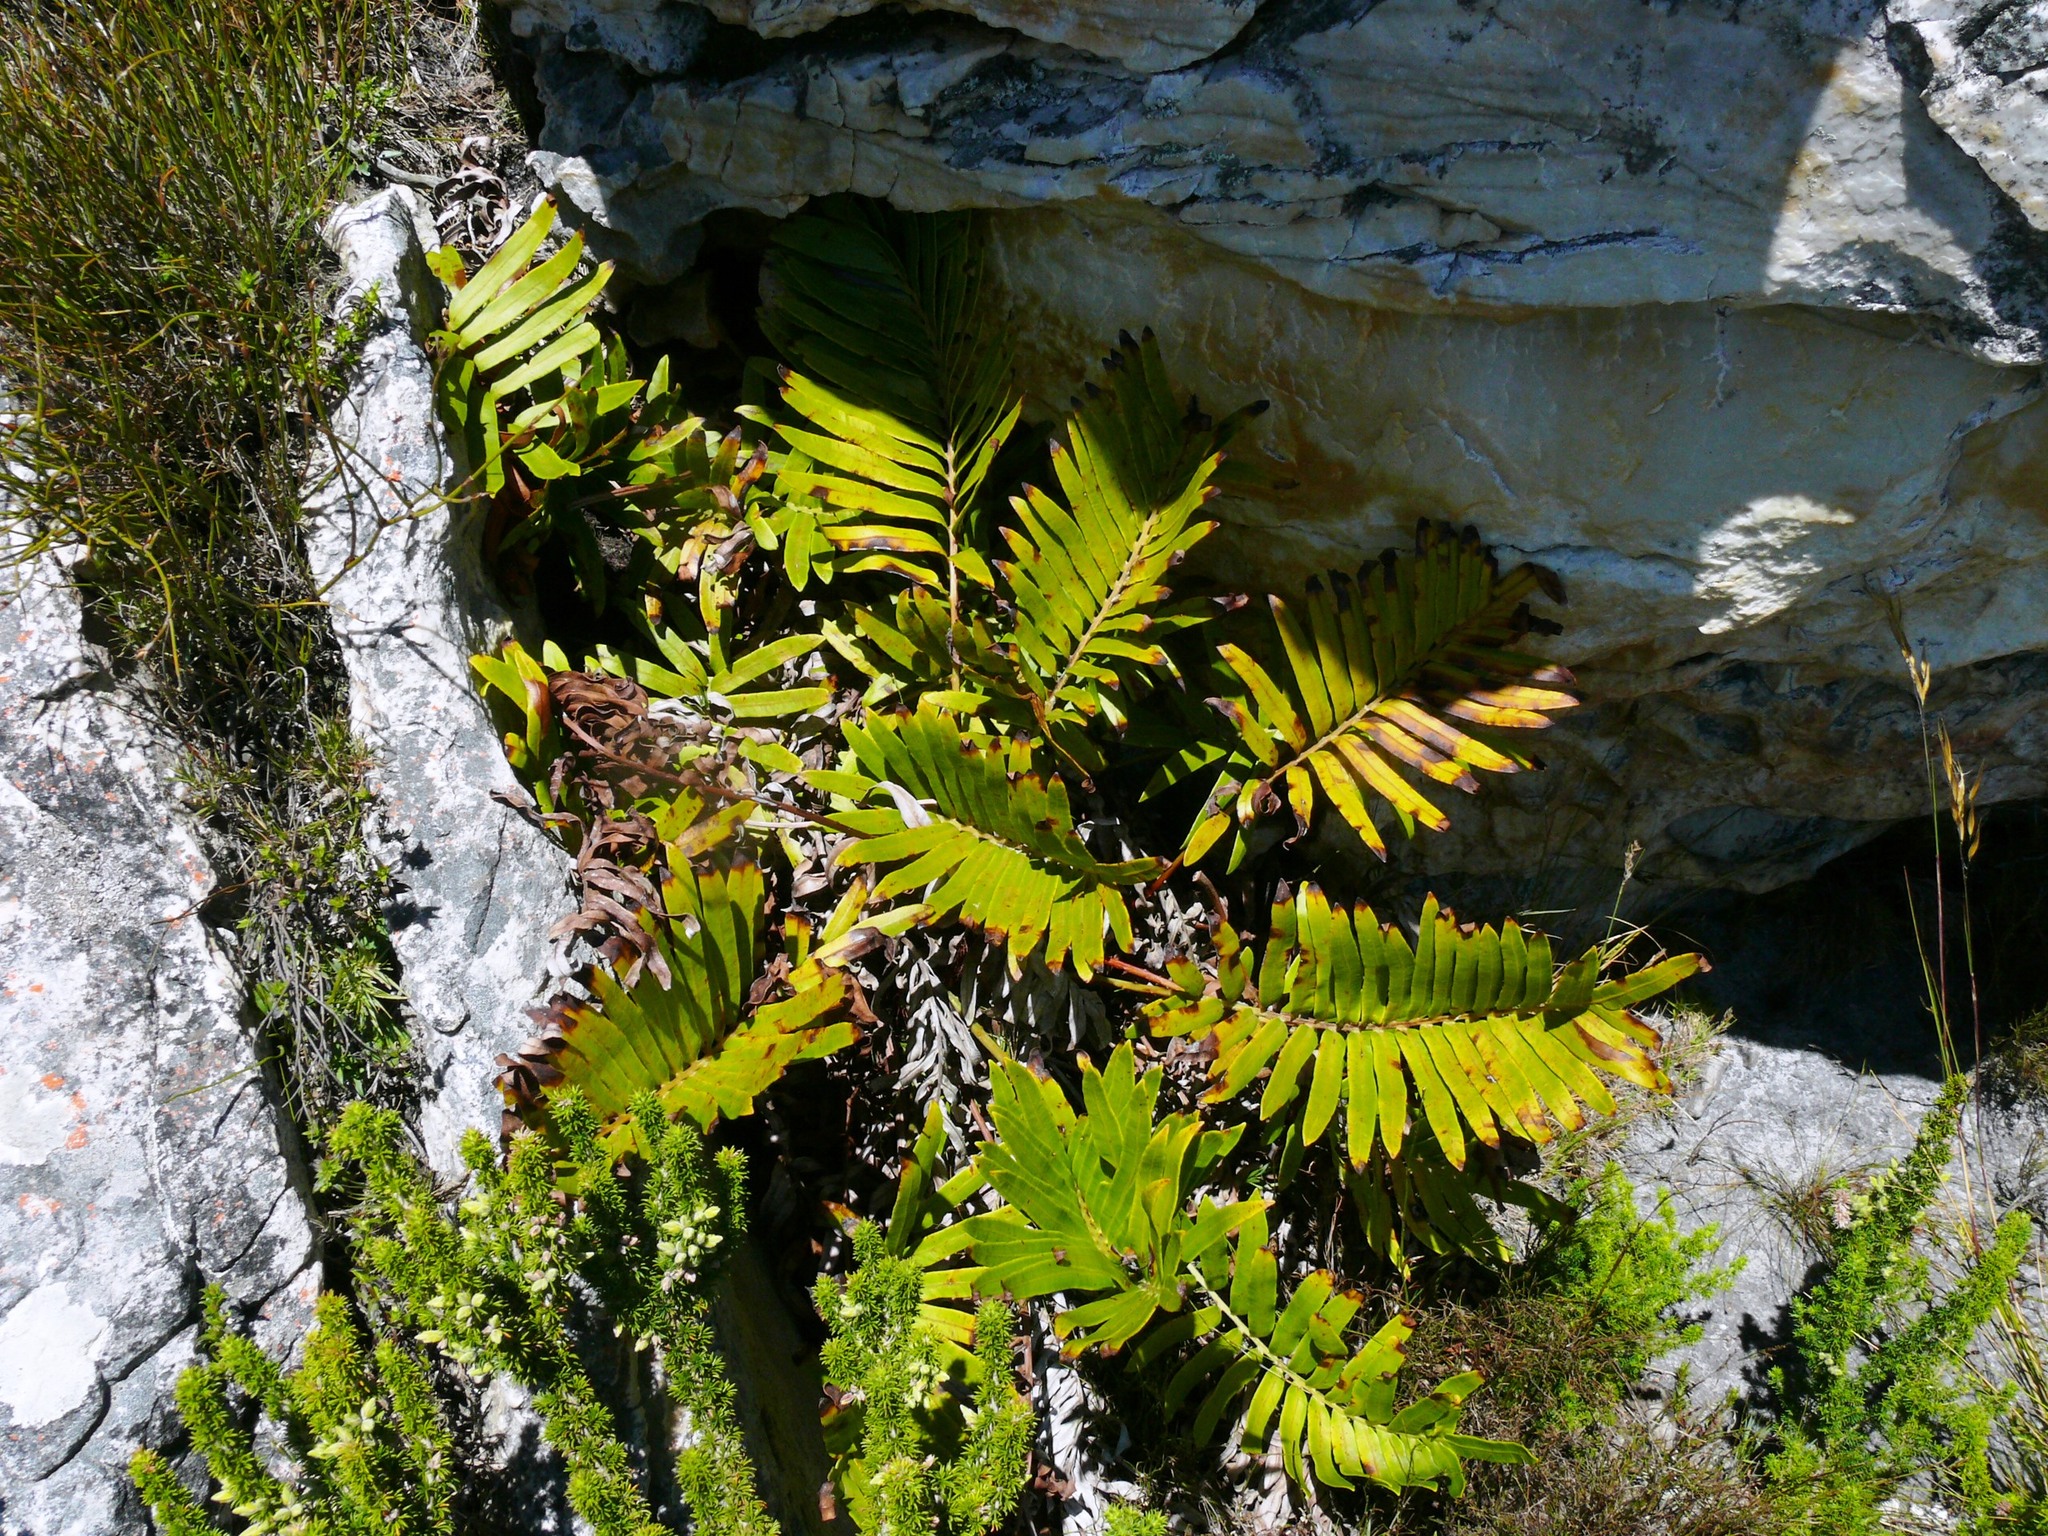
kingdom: Plantae
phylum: Tracheophyta
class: Polypodiopsida
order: Polypodiales
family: Blechnaceae
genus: Lomariocycas
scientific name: Lomariocycas tabularis
